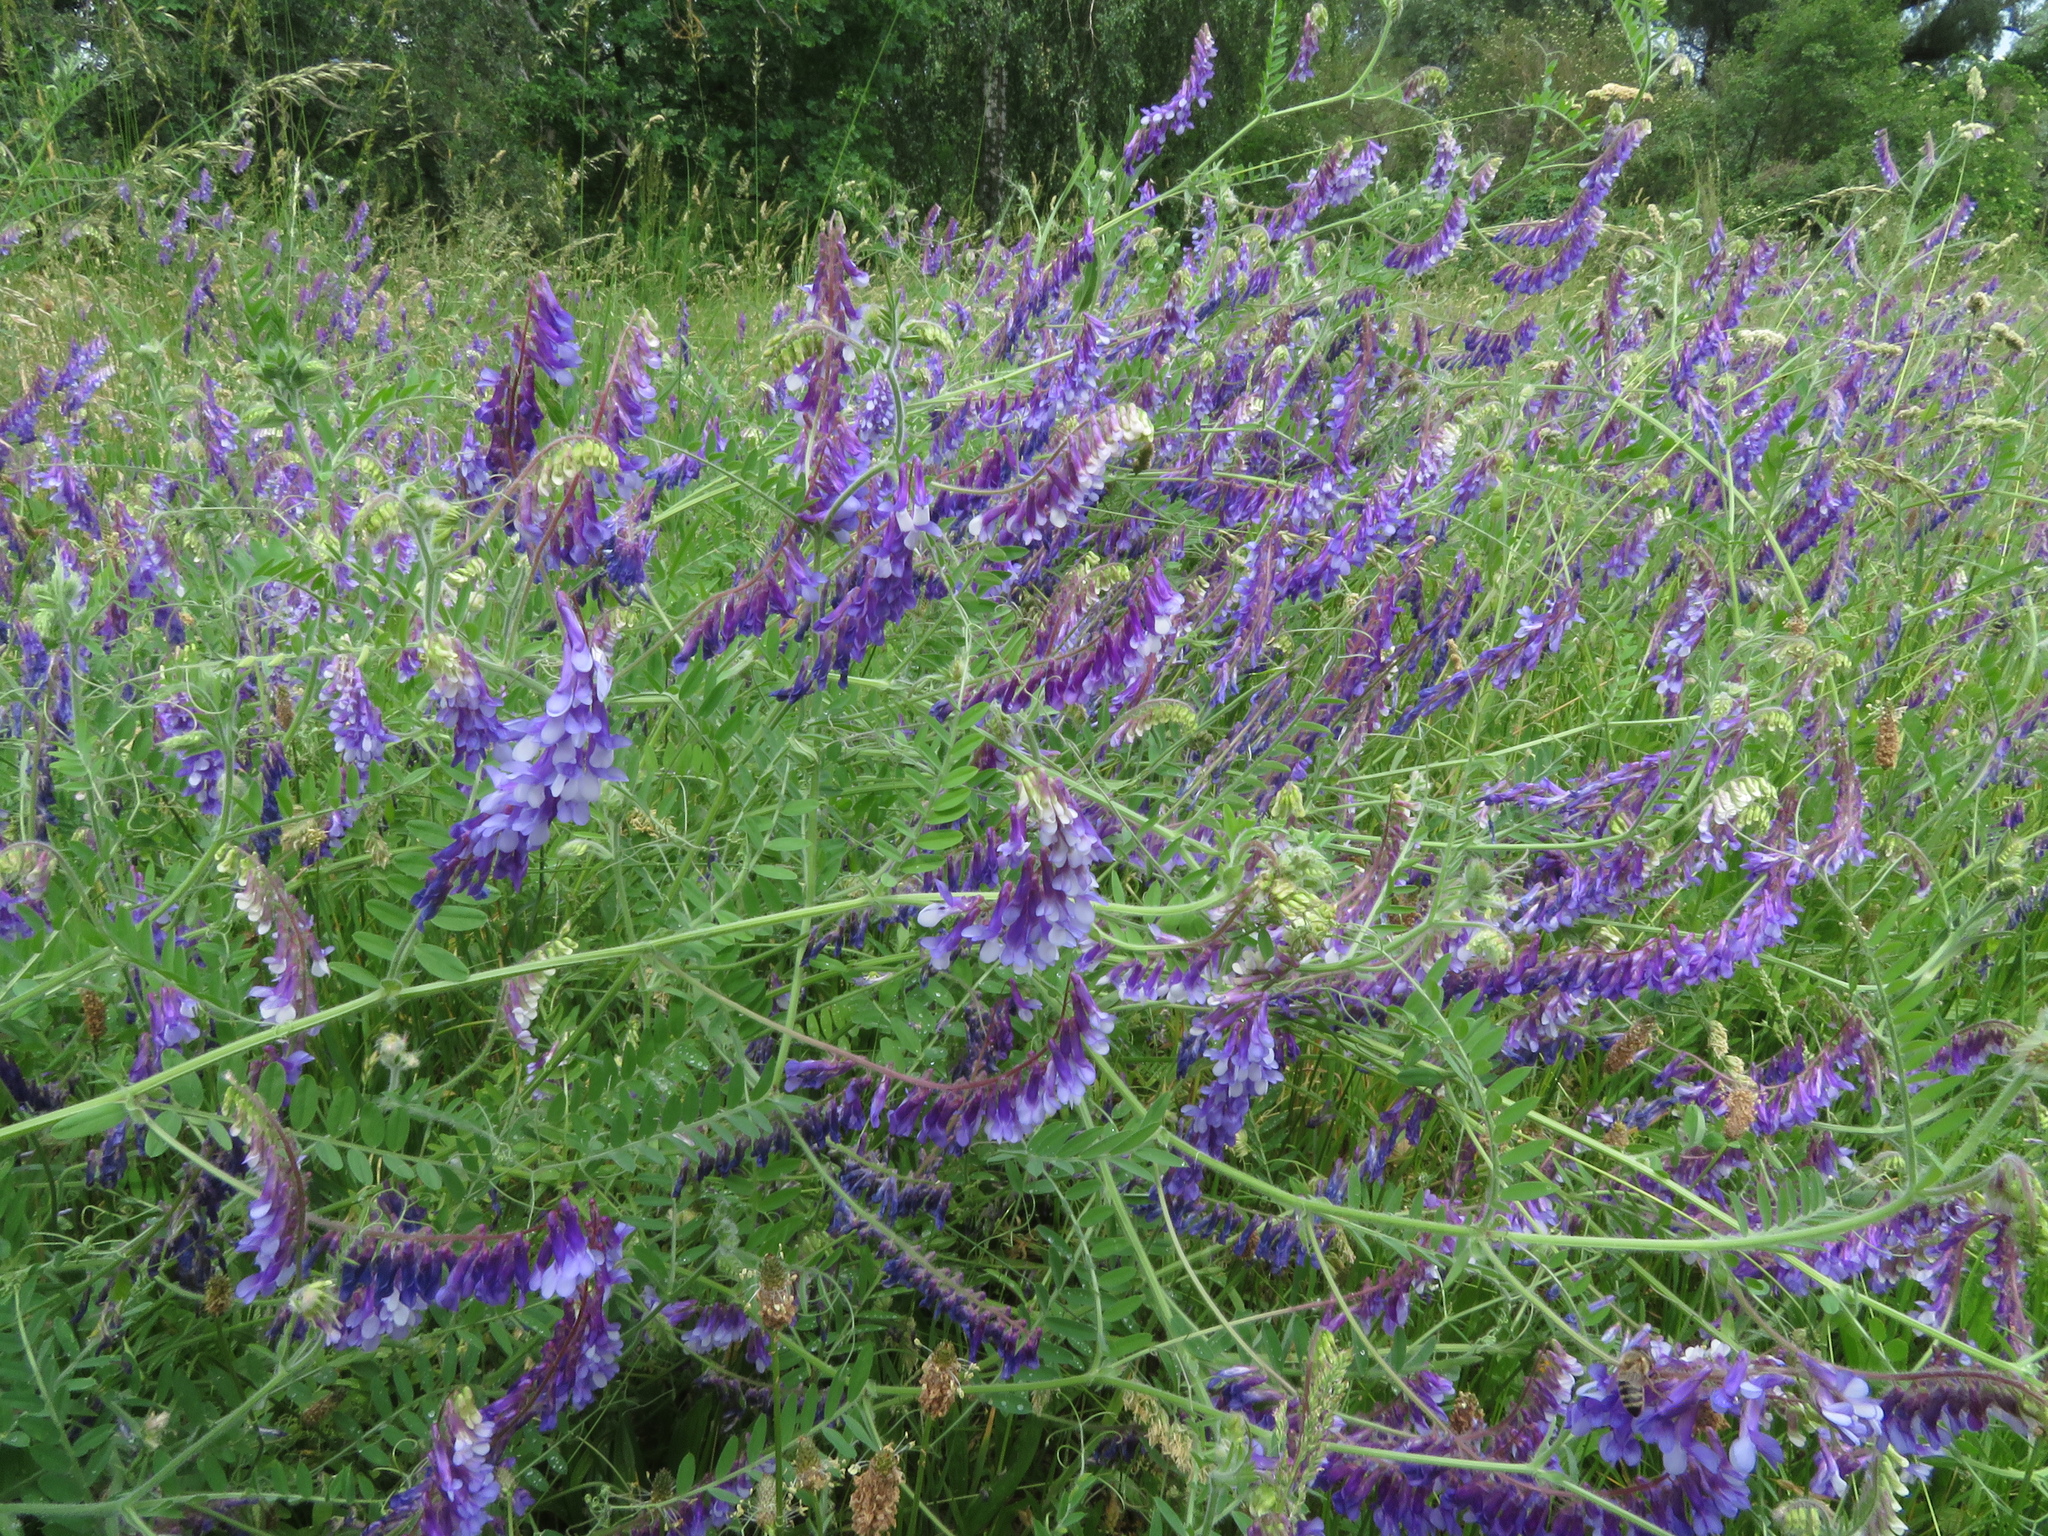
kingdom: Plantae
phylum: Tracheophyta
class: Magnoliopsida
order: Fabales
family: Fabaceae
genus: Vicia
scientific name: Vicia villosa
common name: Fodder vetch
